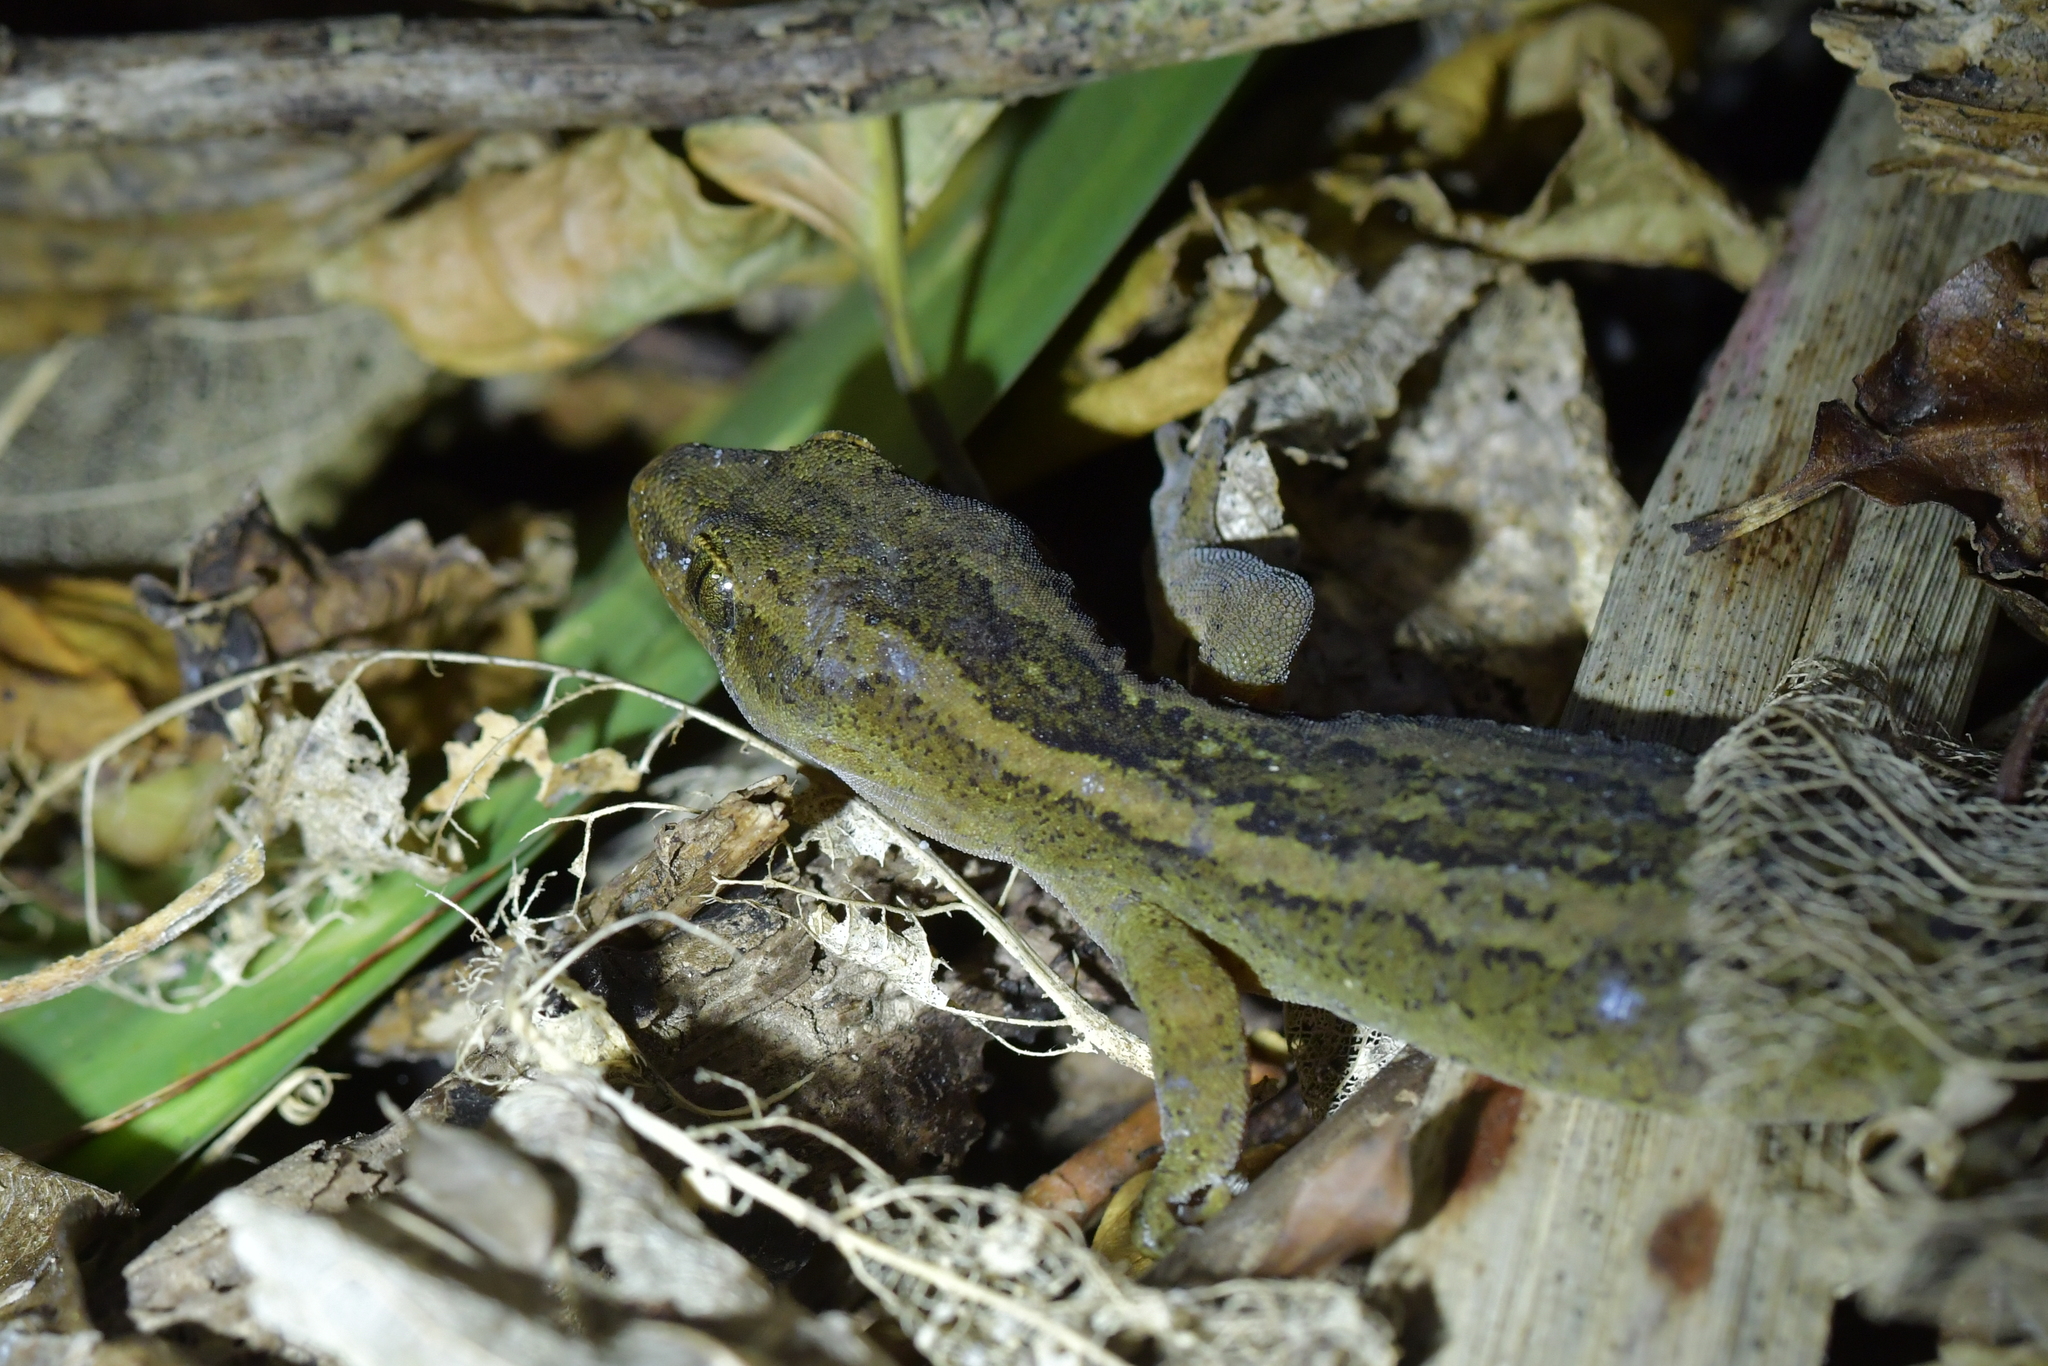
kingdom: Animalia
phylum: Chordata
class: Squamata
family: Diplodactylidae
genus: Woodworthia
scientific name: Woodworthia maculata
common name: Raukawa gecko
